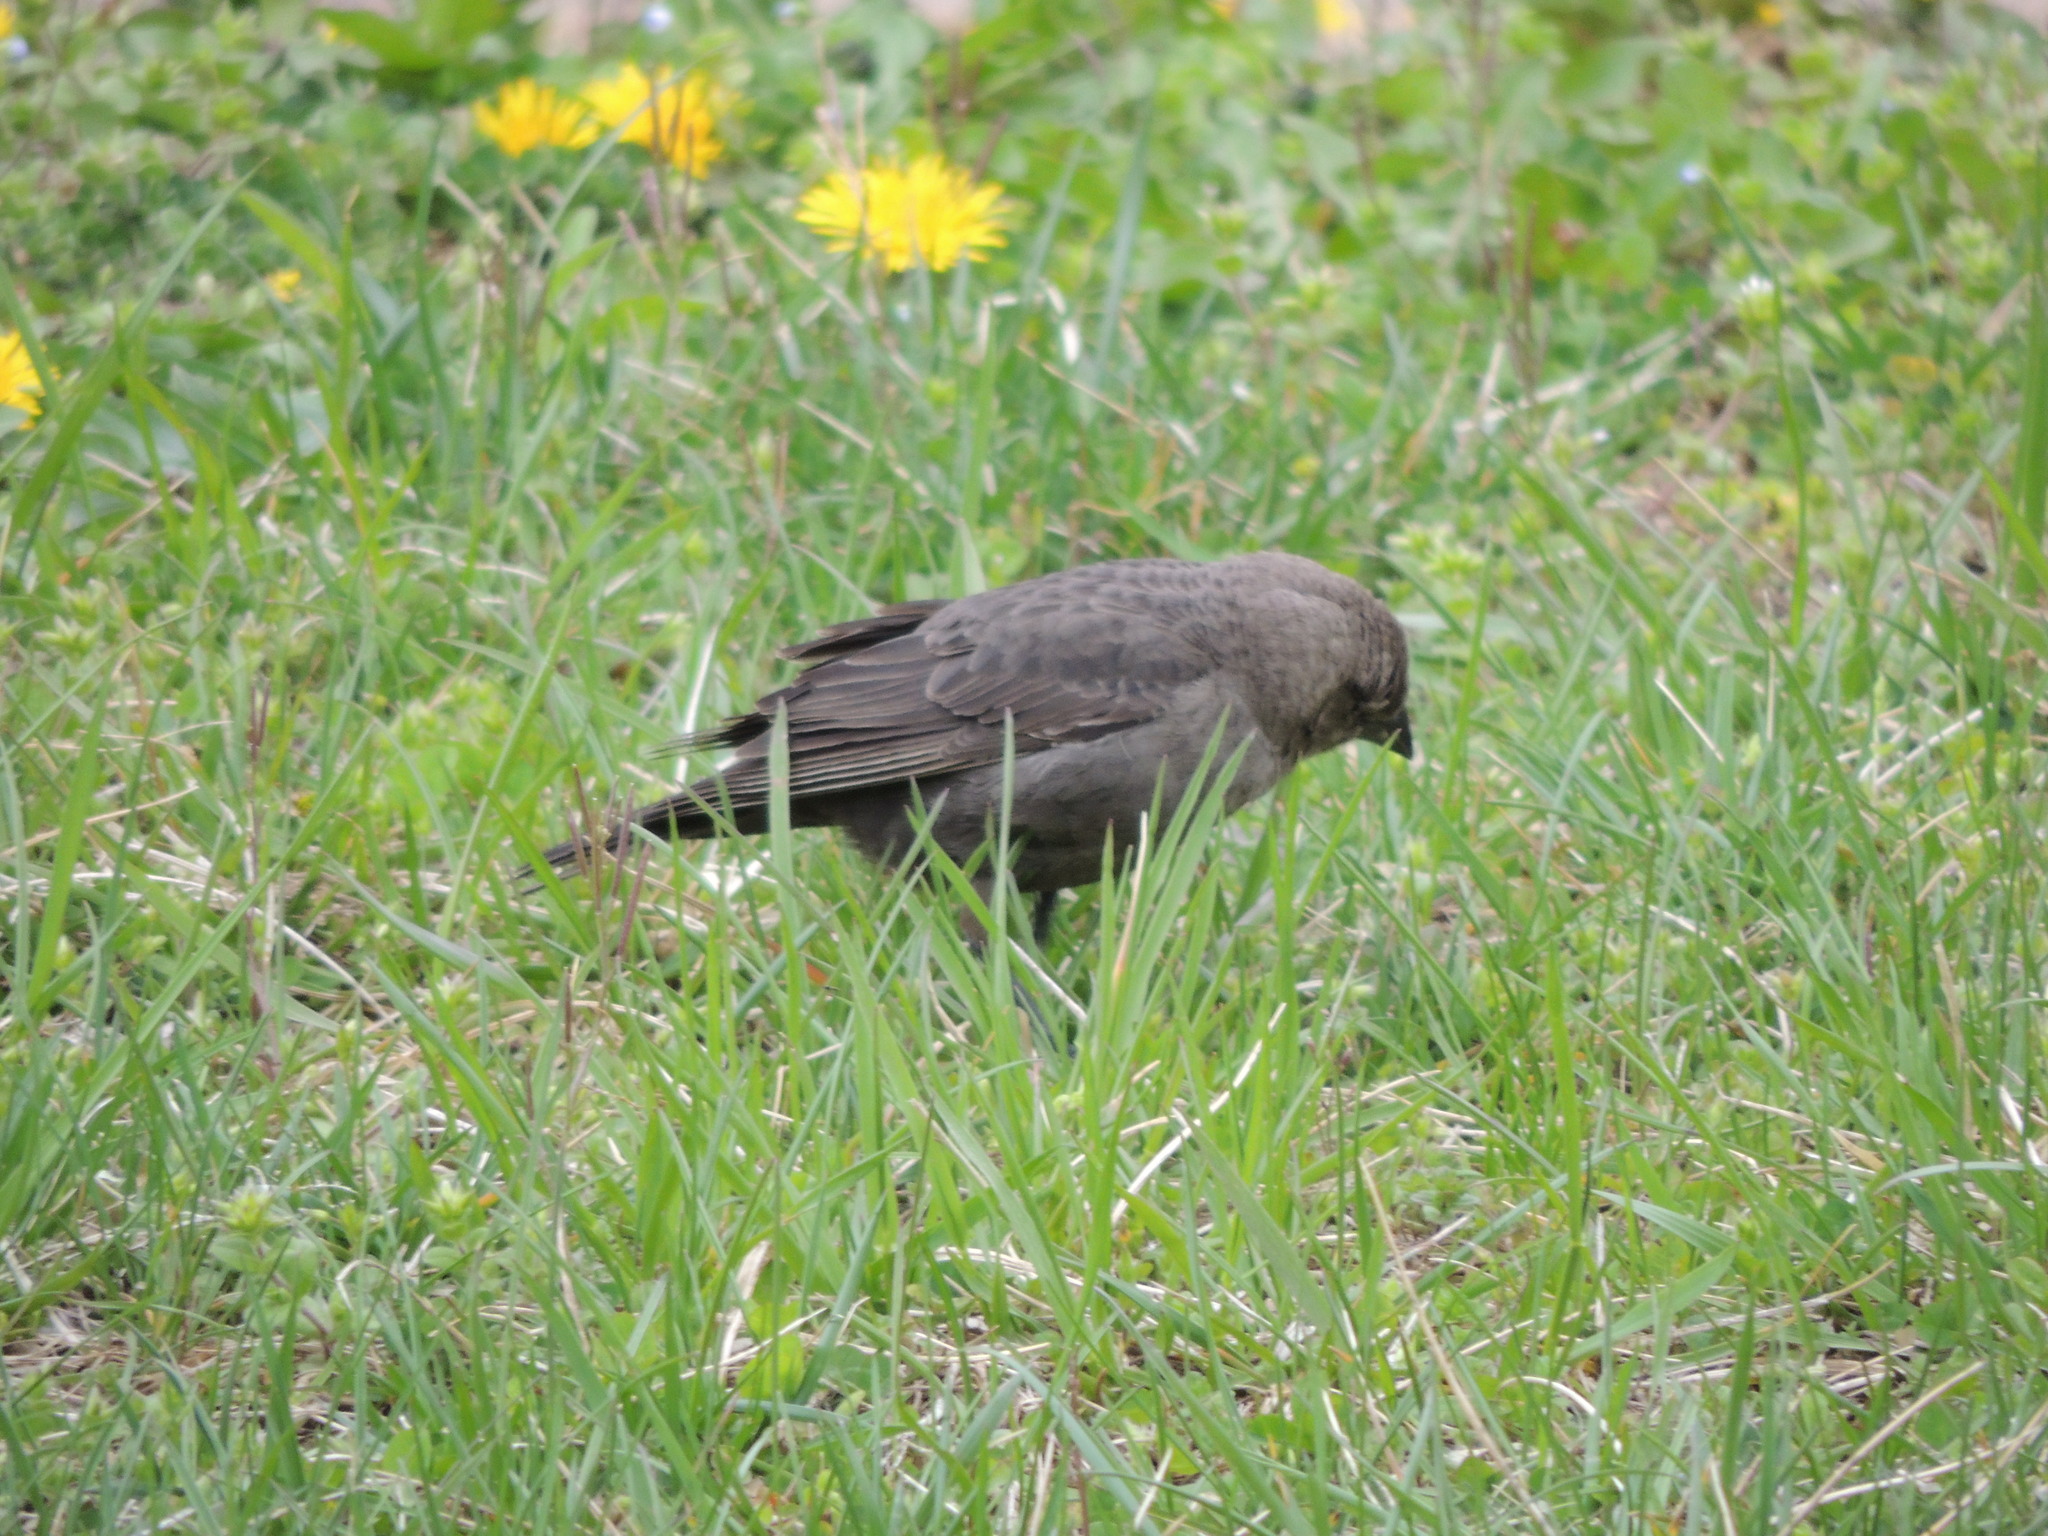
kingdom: Animalia
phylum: Chordata
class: Aves
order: Passeriformes
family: Icteridae
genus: Molothrus
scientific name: Molothrus ater
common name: Brown-headed cowbird
